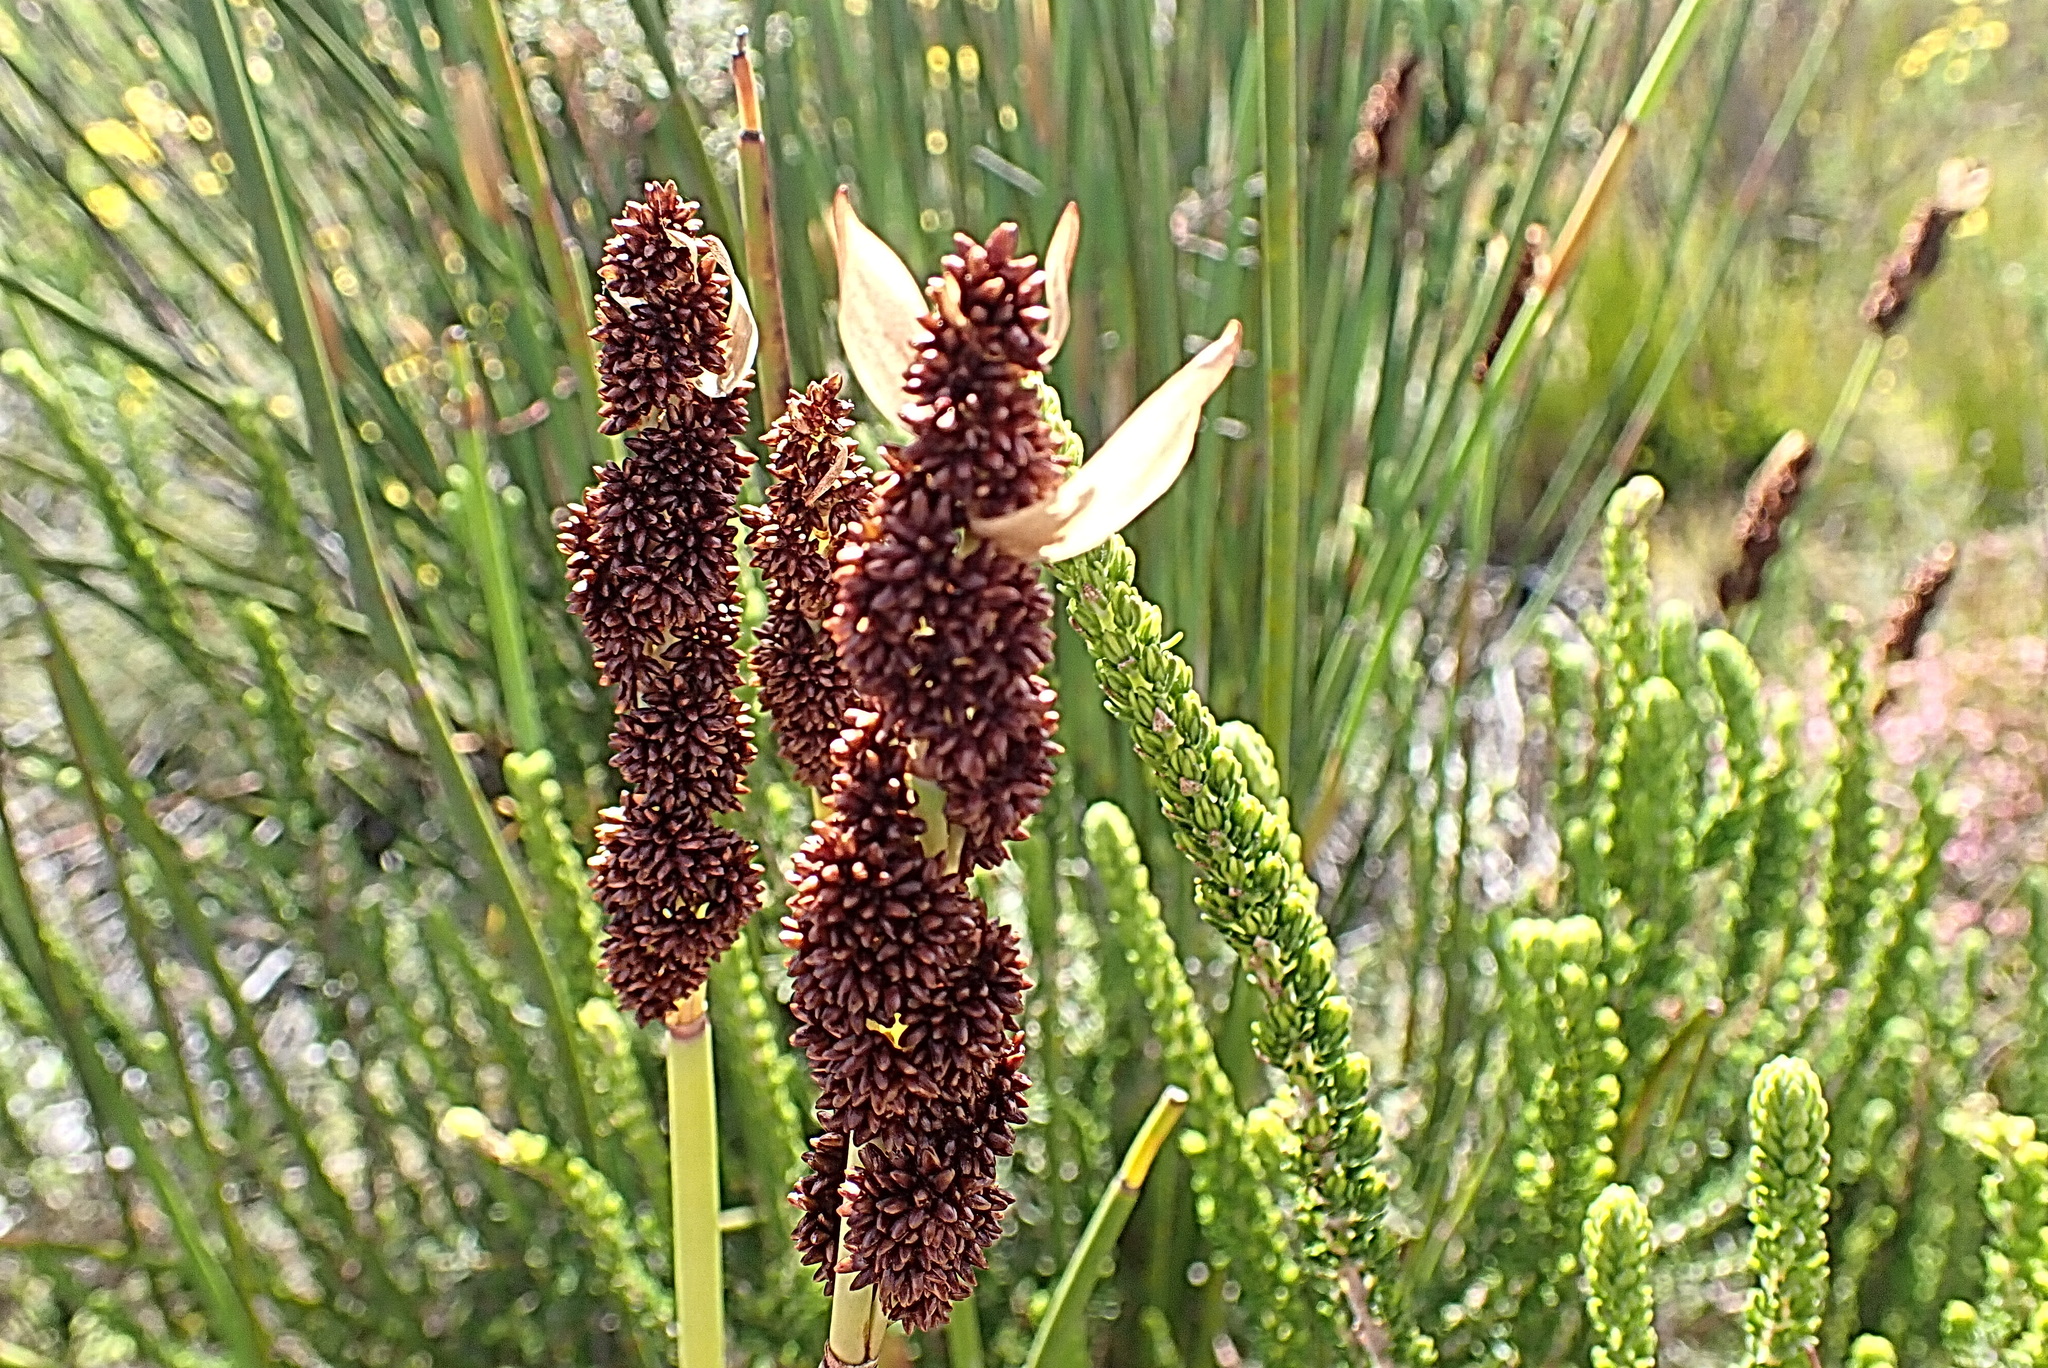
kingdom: Plantae
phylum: Tracheophyta
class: Liliopsida
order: Poales
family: Restionaceae
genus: Elegia
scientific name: Elegia thyrsoidea
